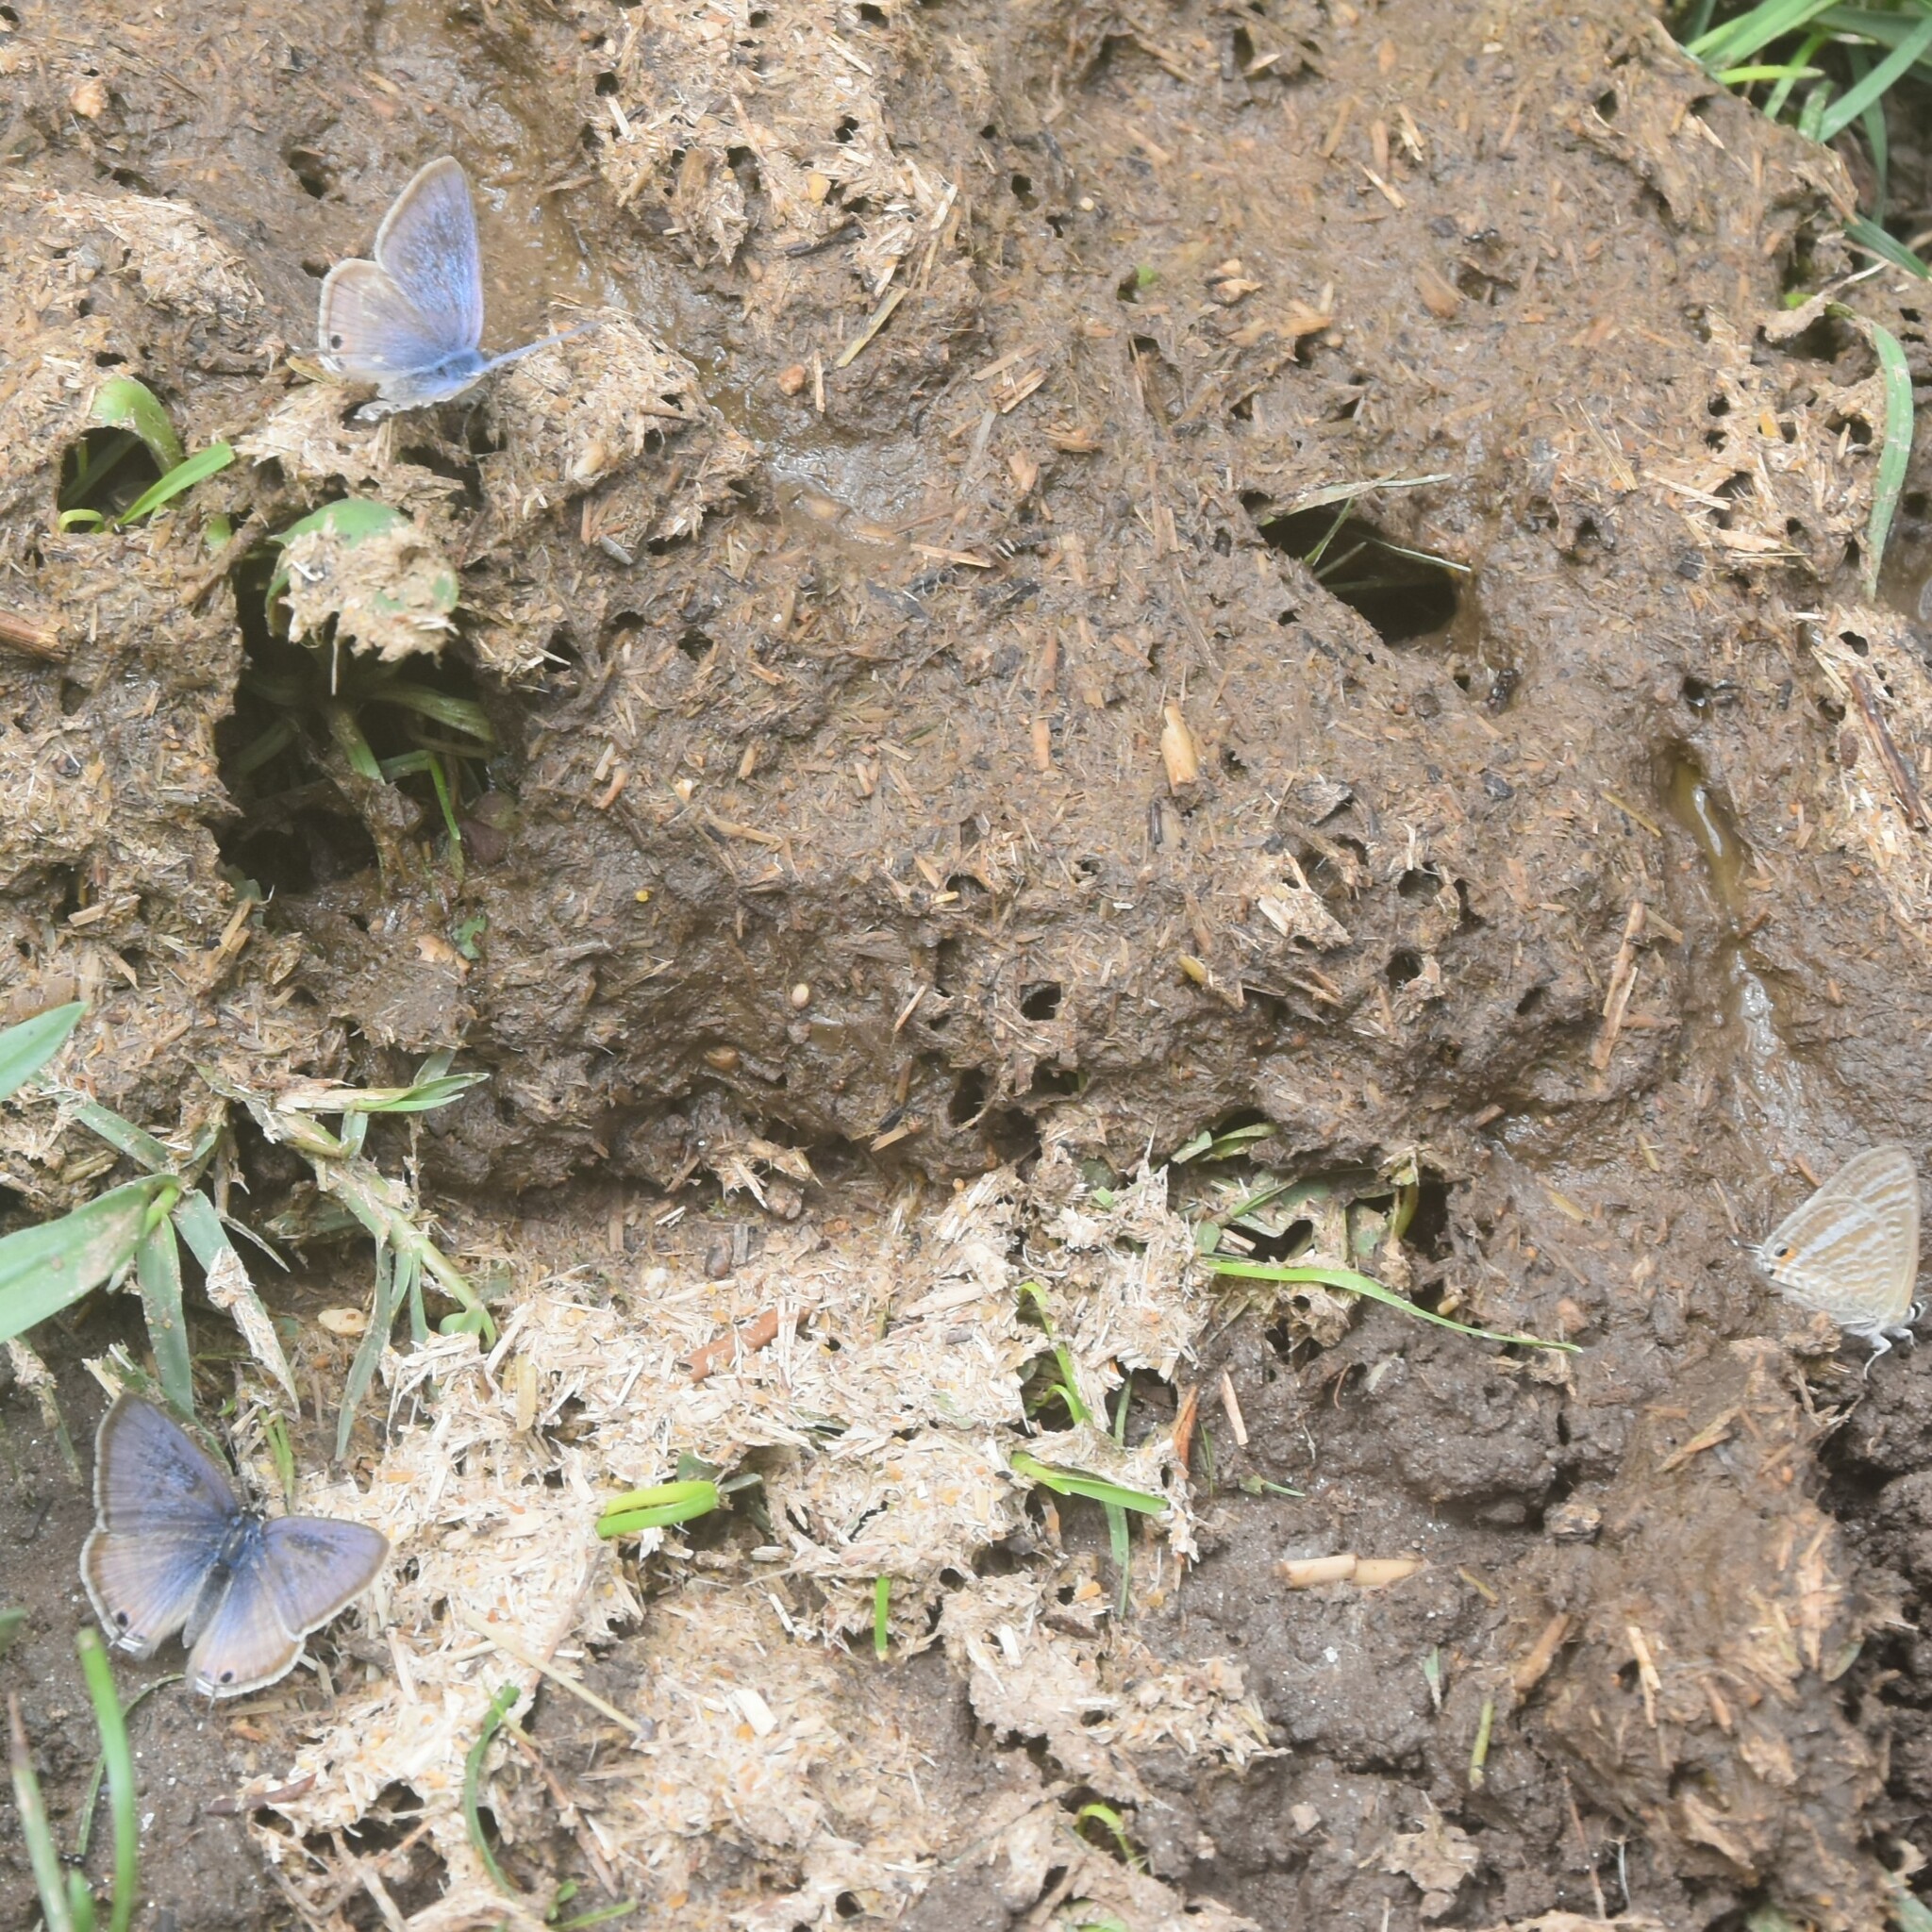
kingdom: Animalia
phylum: Arthropoda
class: Insecta
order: Lepidoptera
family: Lycaenidae
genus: Lampides
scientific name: Lampides boeticus
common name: Long-tailed blue
